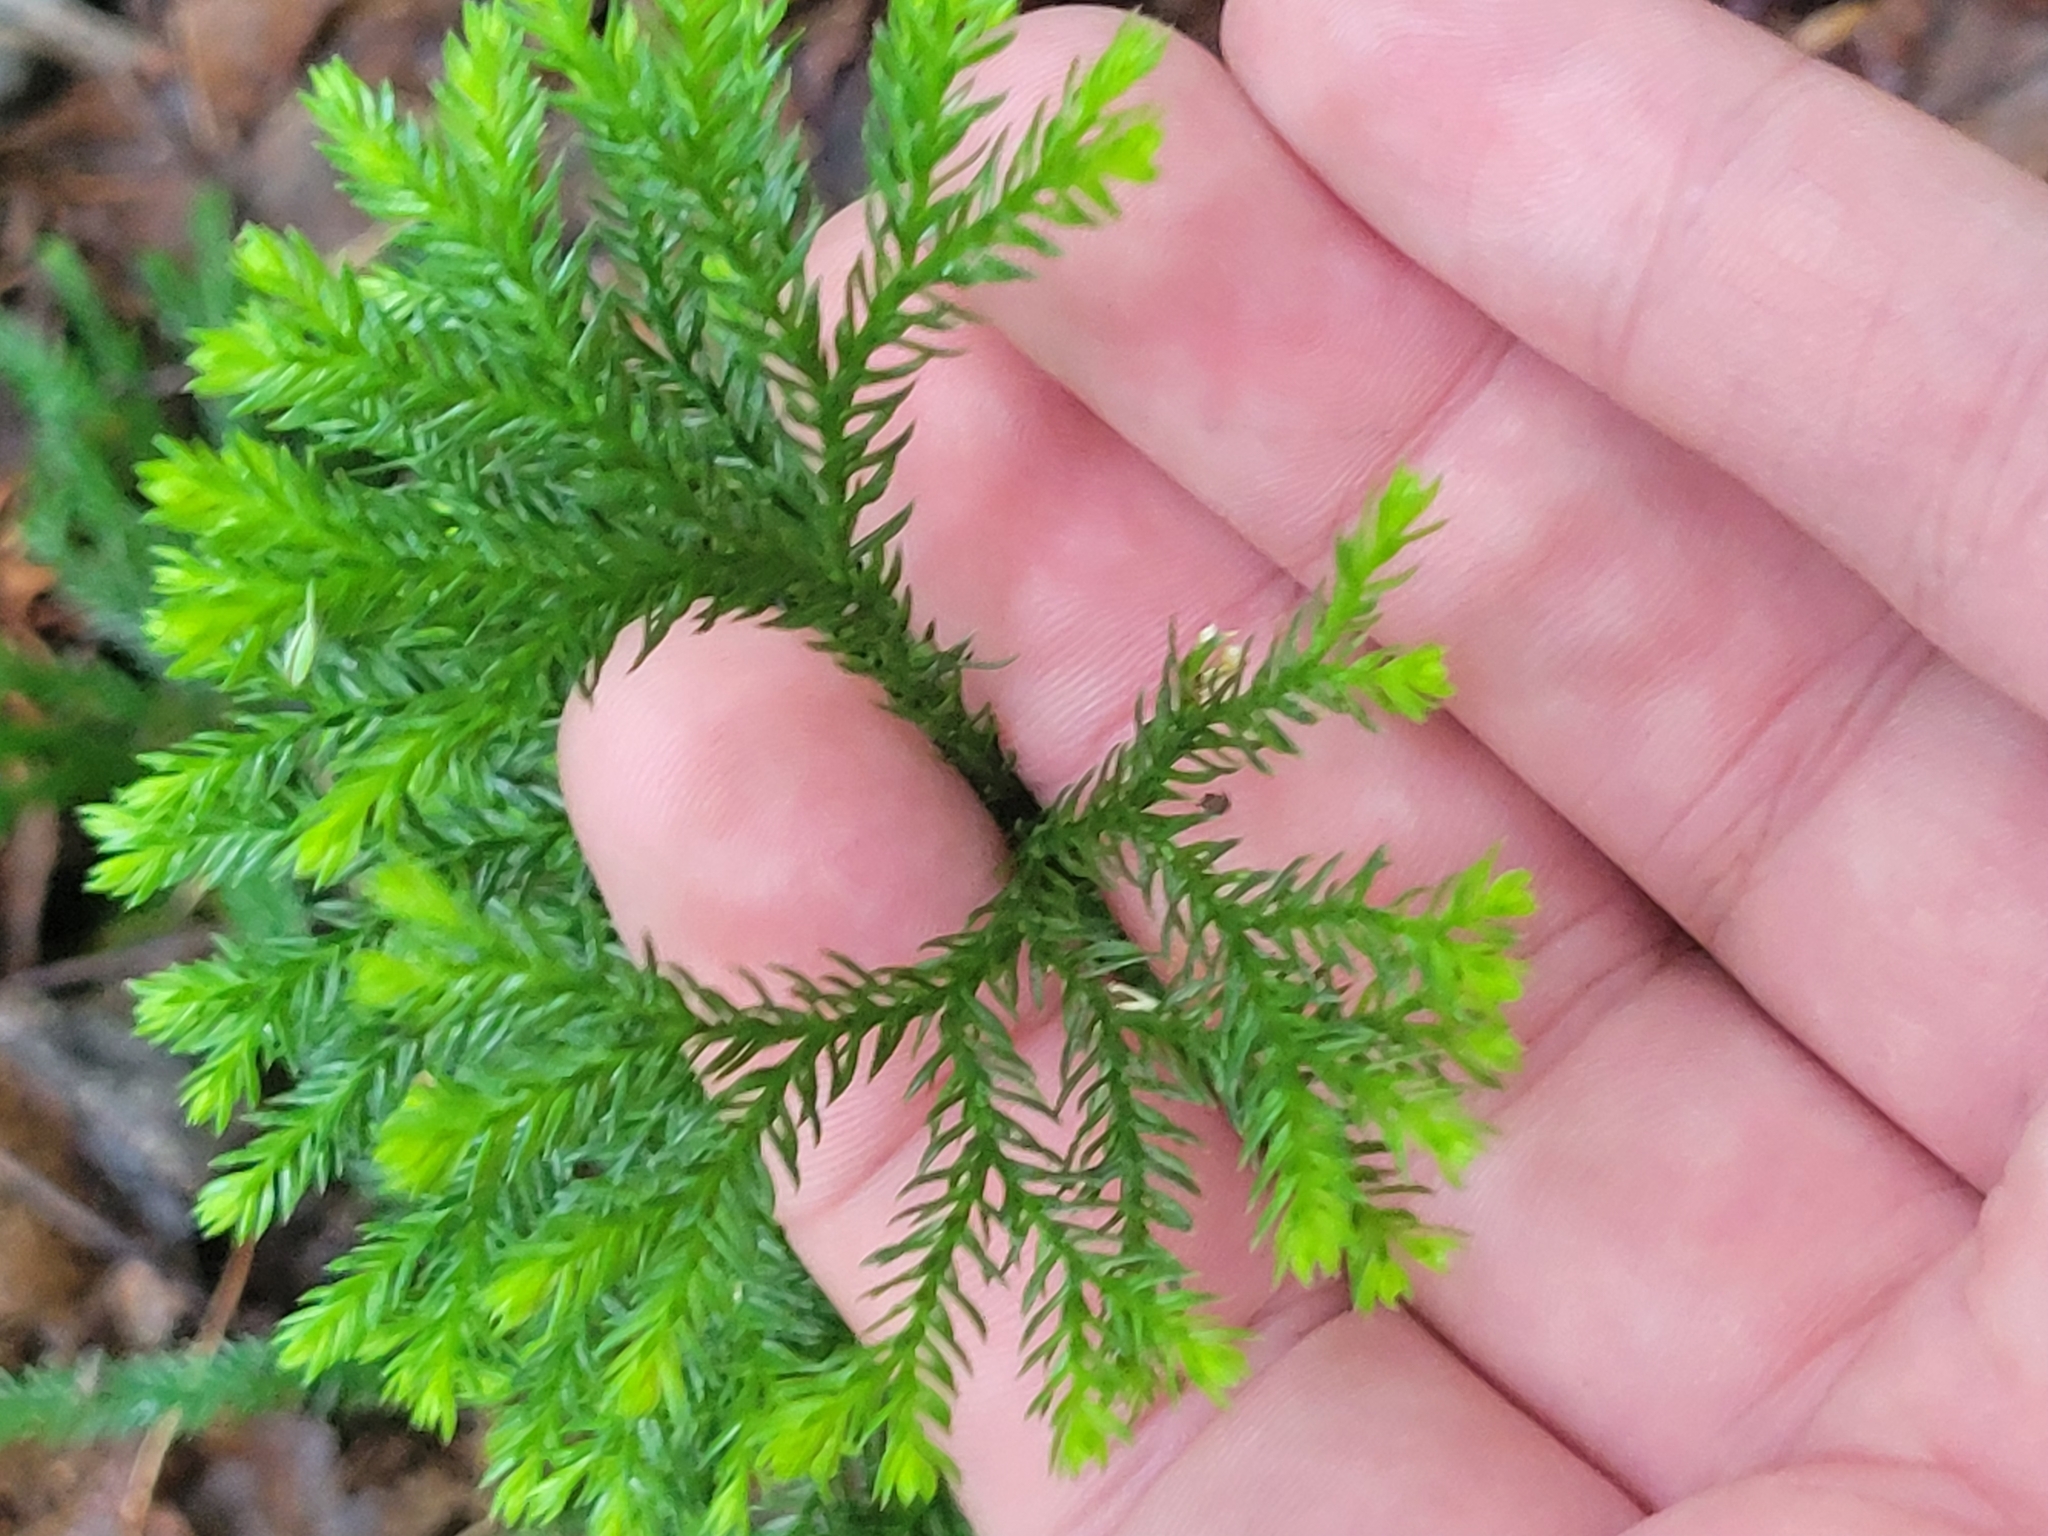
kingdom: Plantae
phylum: Tracheophyta
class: Lycopodiopsida
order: Lycopodiales
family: Lycopodiaceae
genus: Dendrolycopodium
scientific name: Dendrolycopodium obscurum
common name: Common ground-pine
